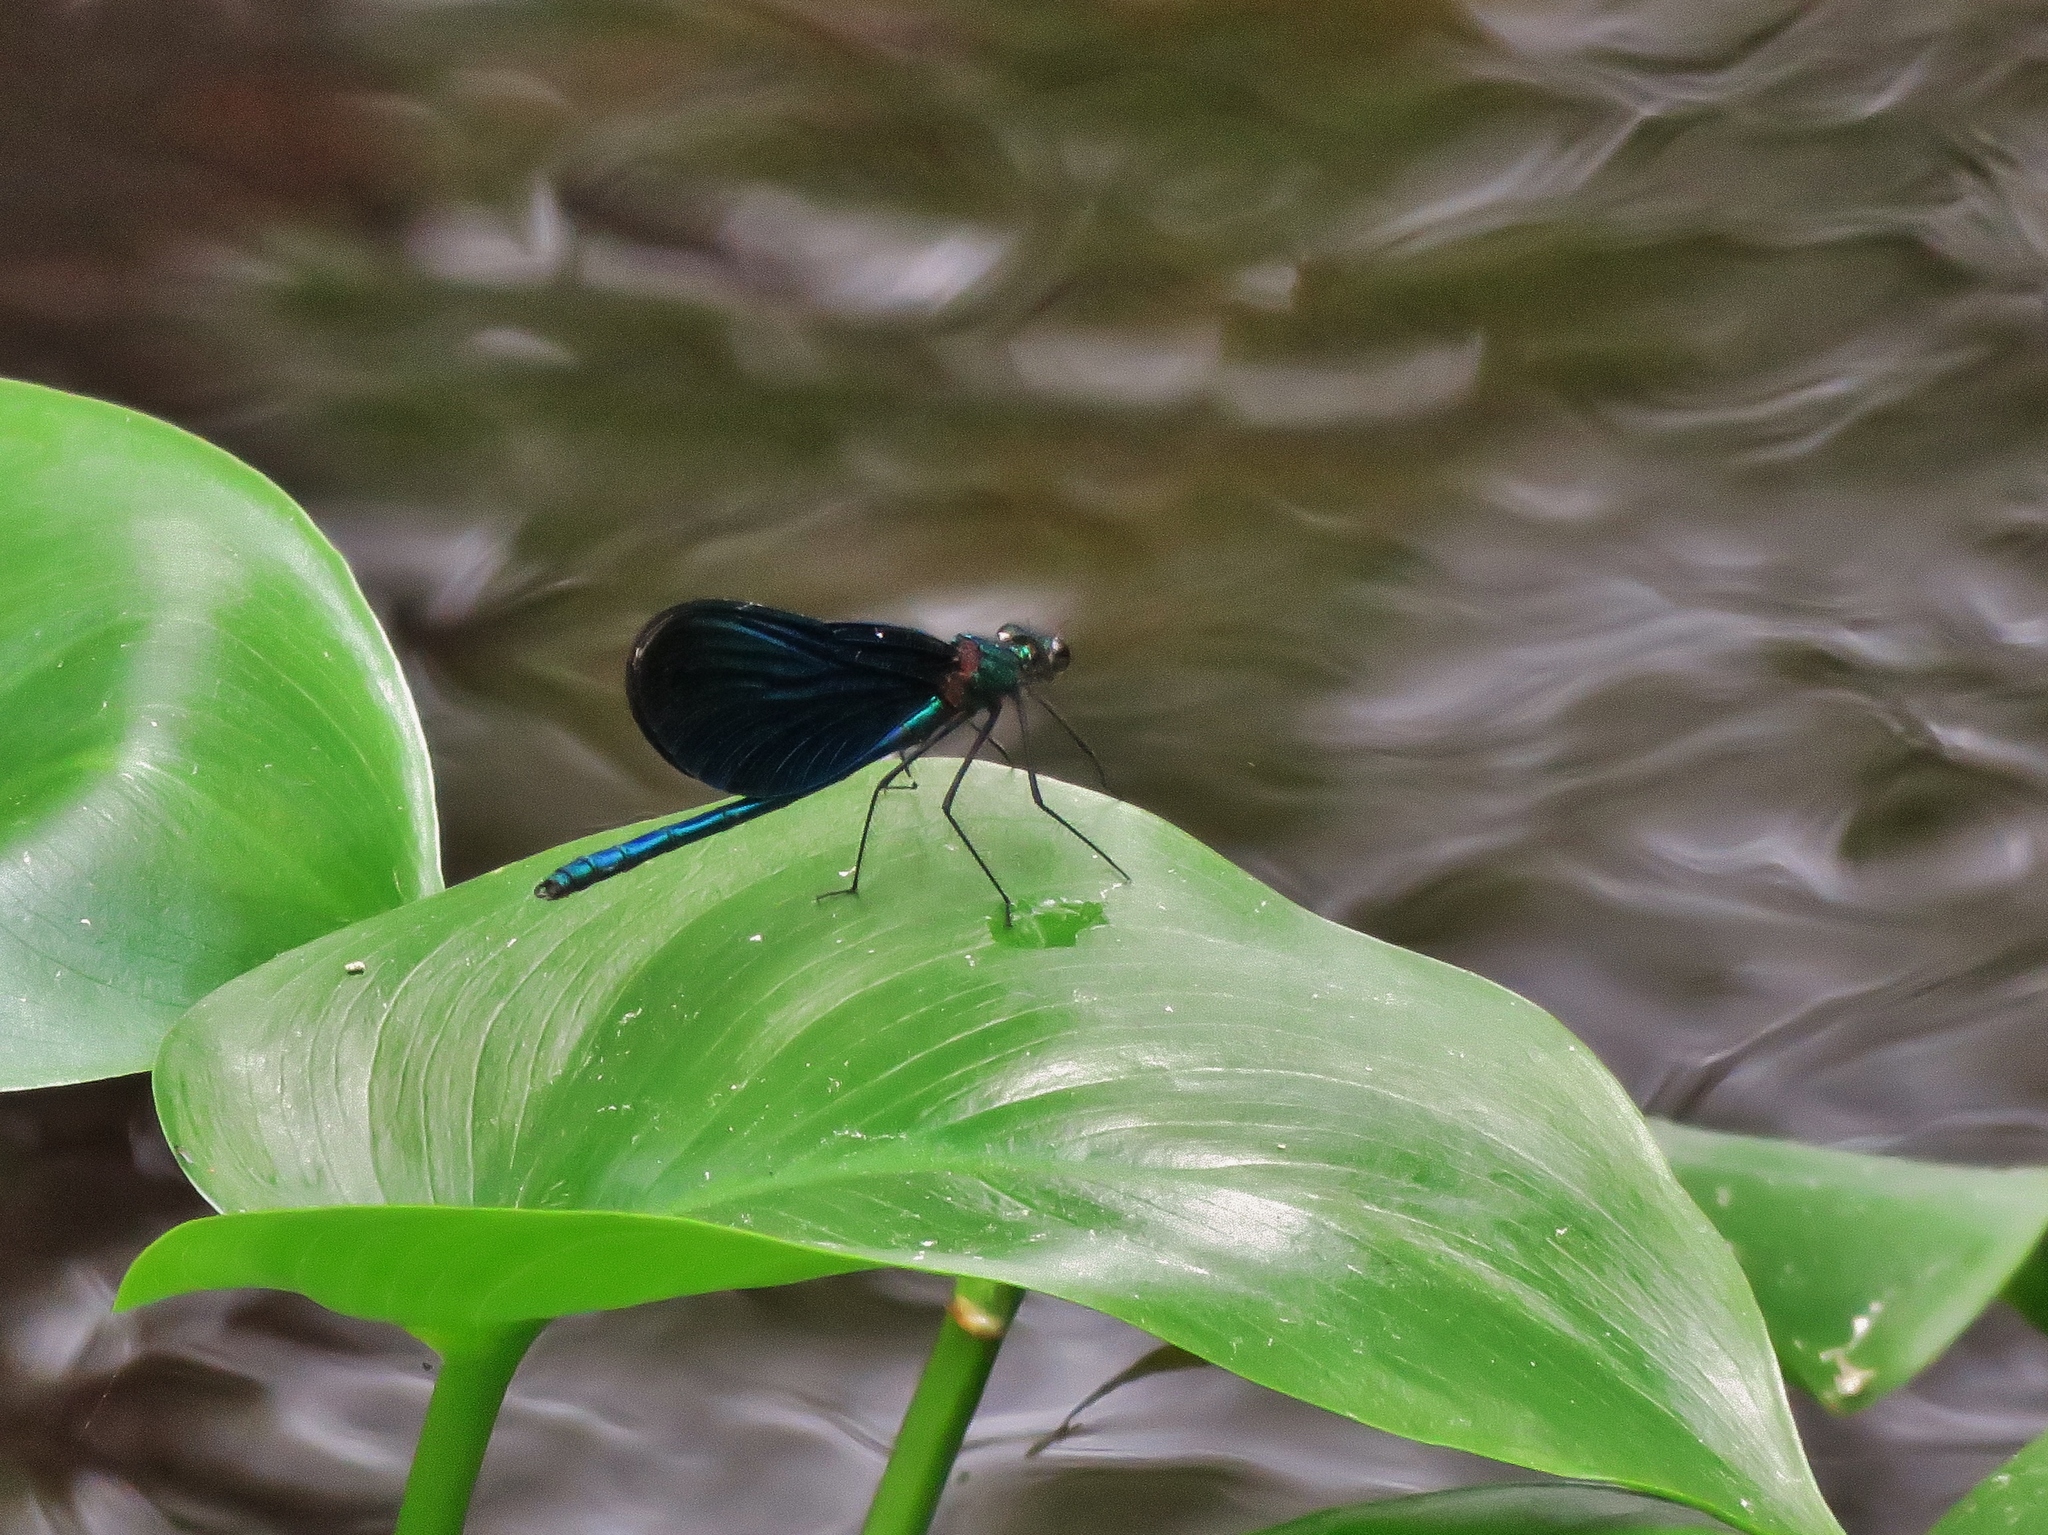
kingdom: Animalia
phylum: Arthropoda
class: Insecta
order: Odonata
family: Calopterygidae
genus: Calopteryx
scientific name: Calopteryx virgo
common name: Beautiful demoiselle
